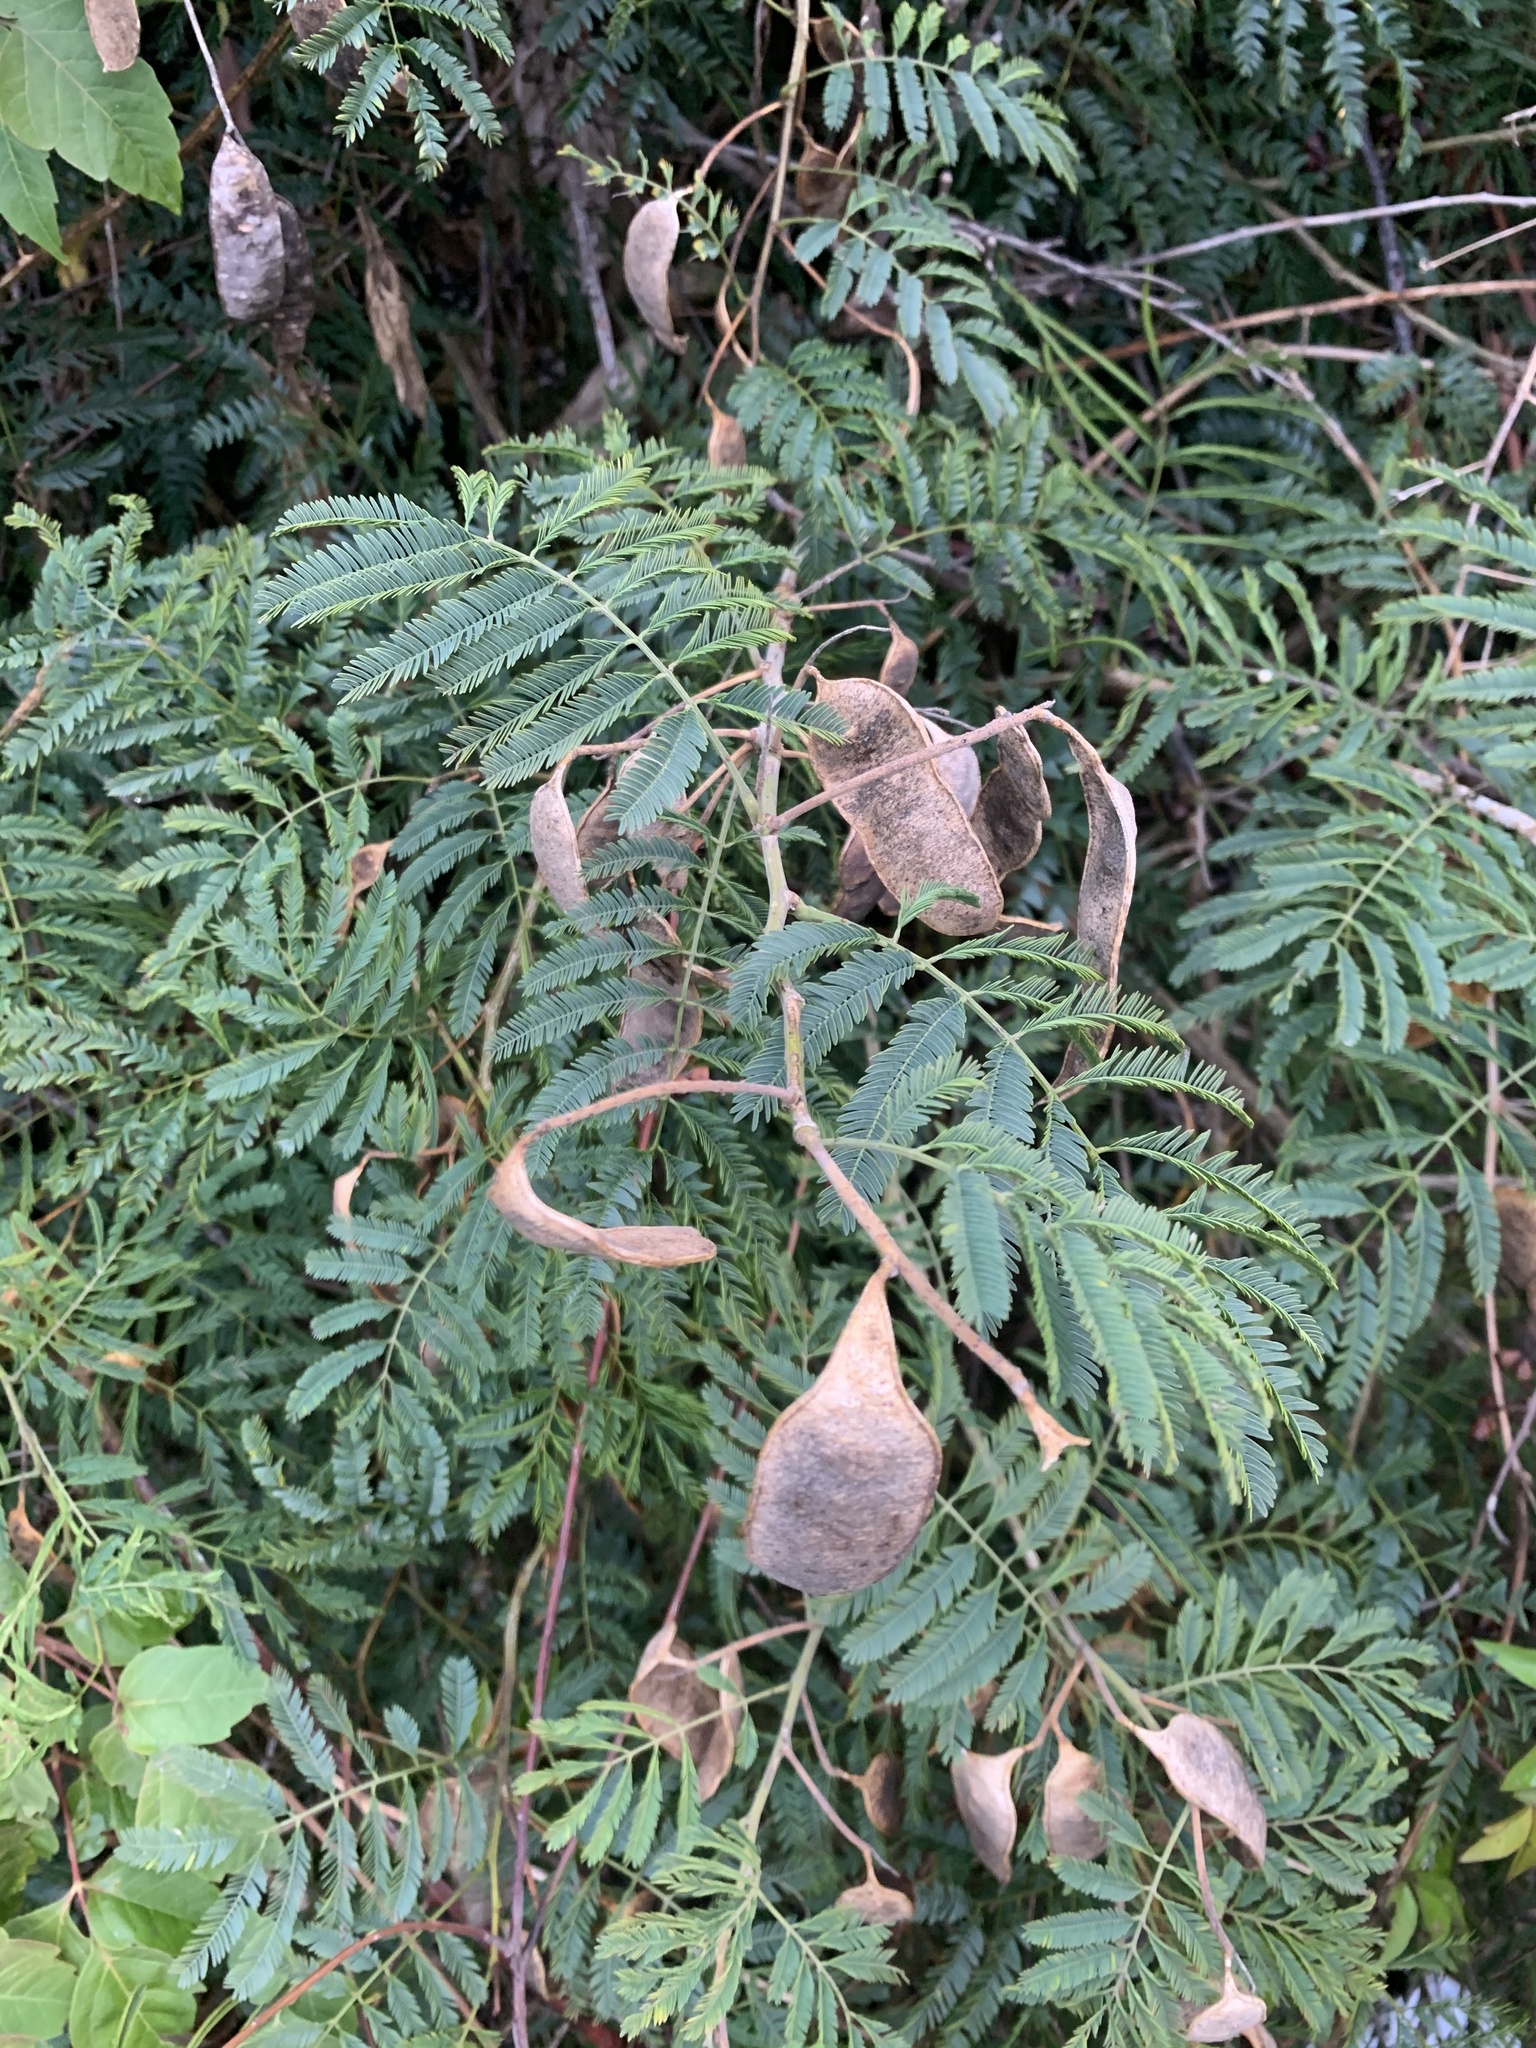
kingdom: Plantae
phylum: Tracheophyta
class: Magnoliopsida
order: Fabales
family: Fabaceae
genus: Senegalia
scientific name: Senegalia bonariensis
